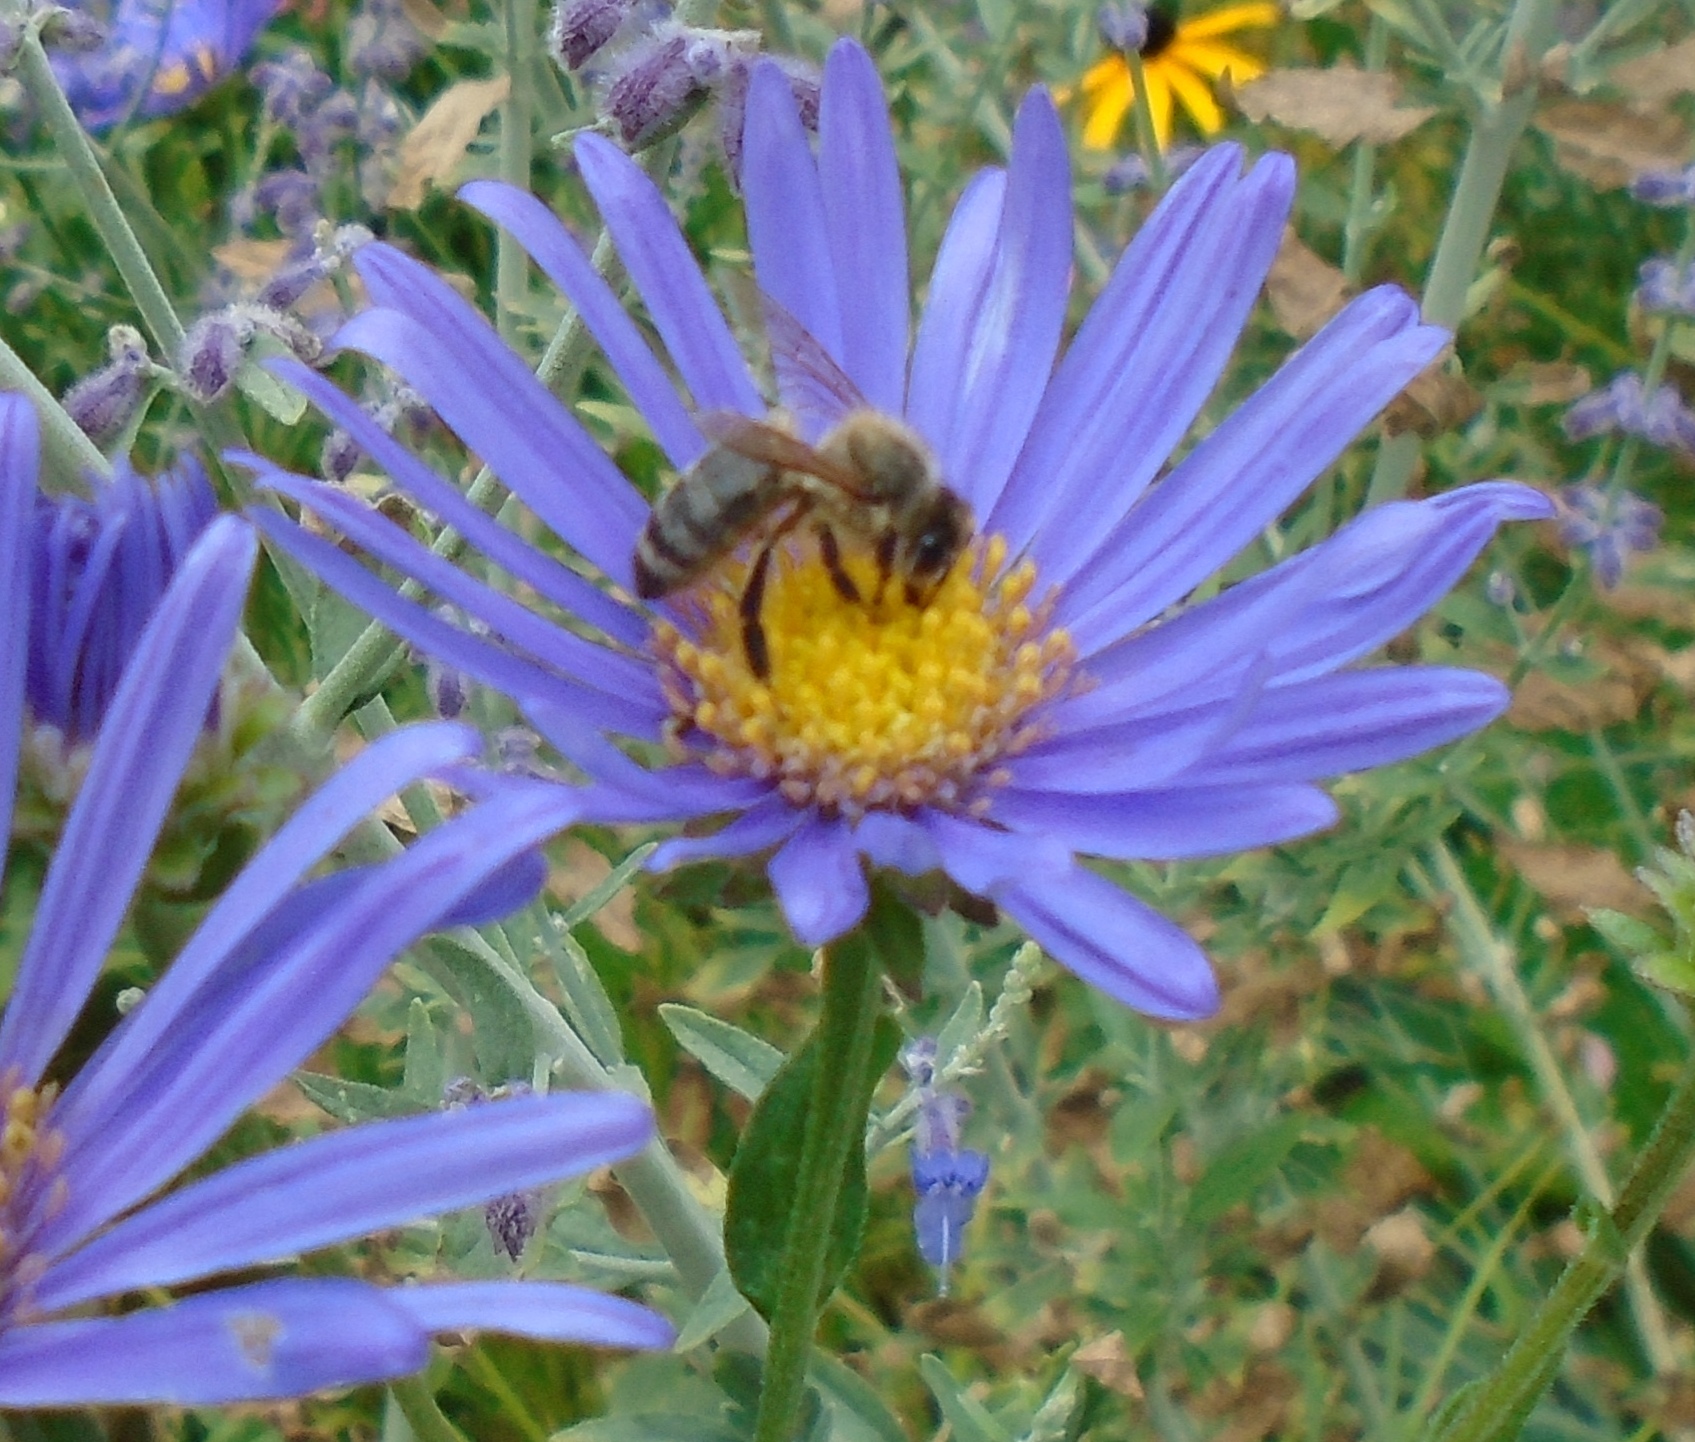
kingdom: Animalia
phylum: Arthropoda
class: Insecta
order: Hymenoptera
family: Apidae
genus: Apis
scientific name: Apis mellifera
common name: Honey bee
